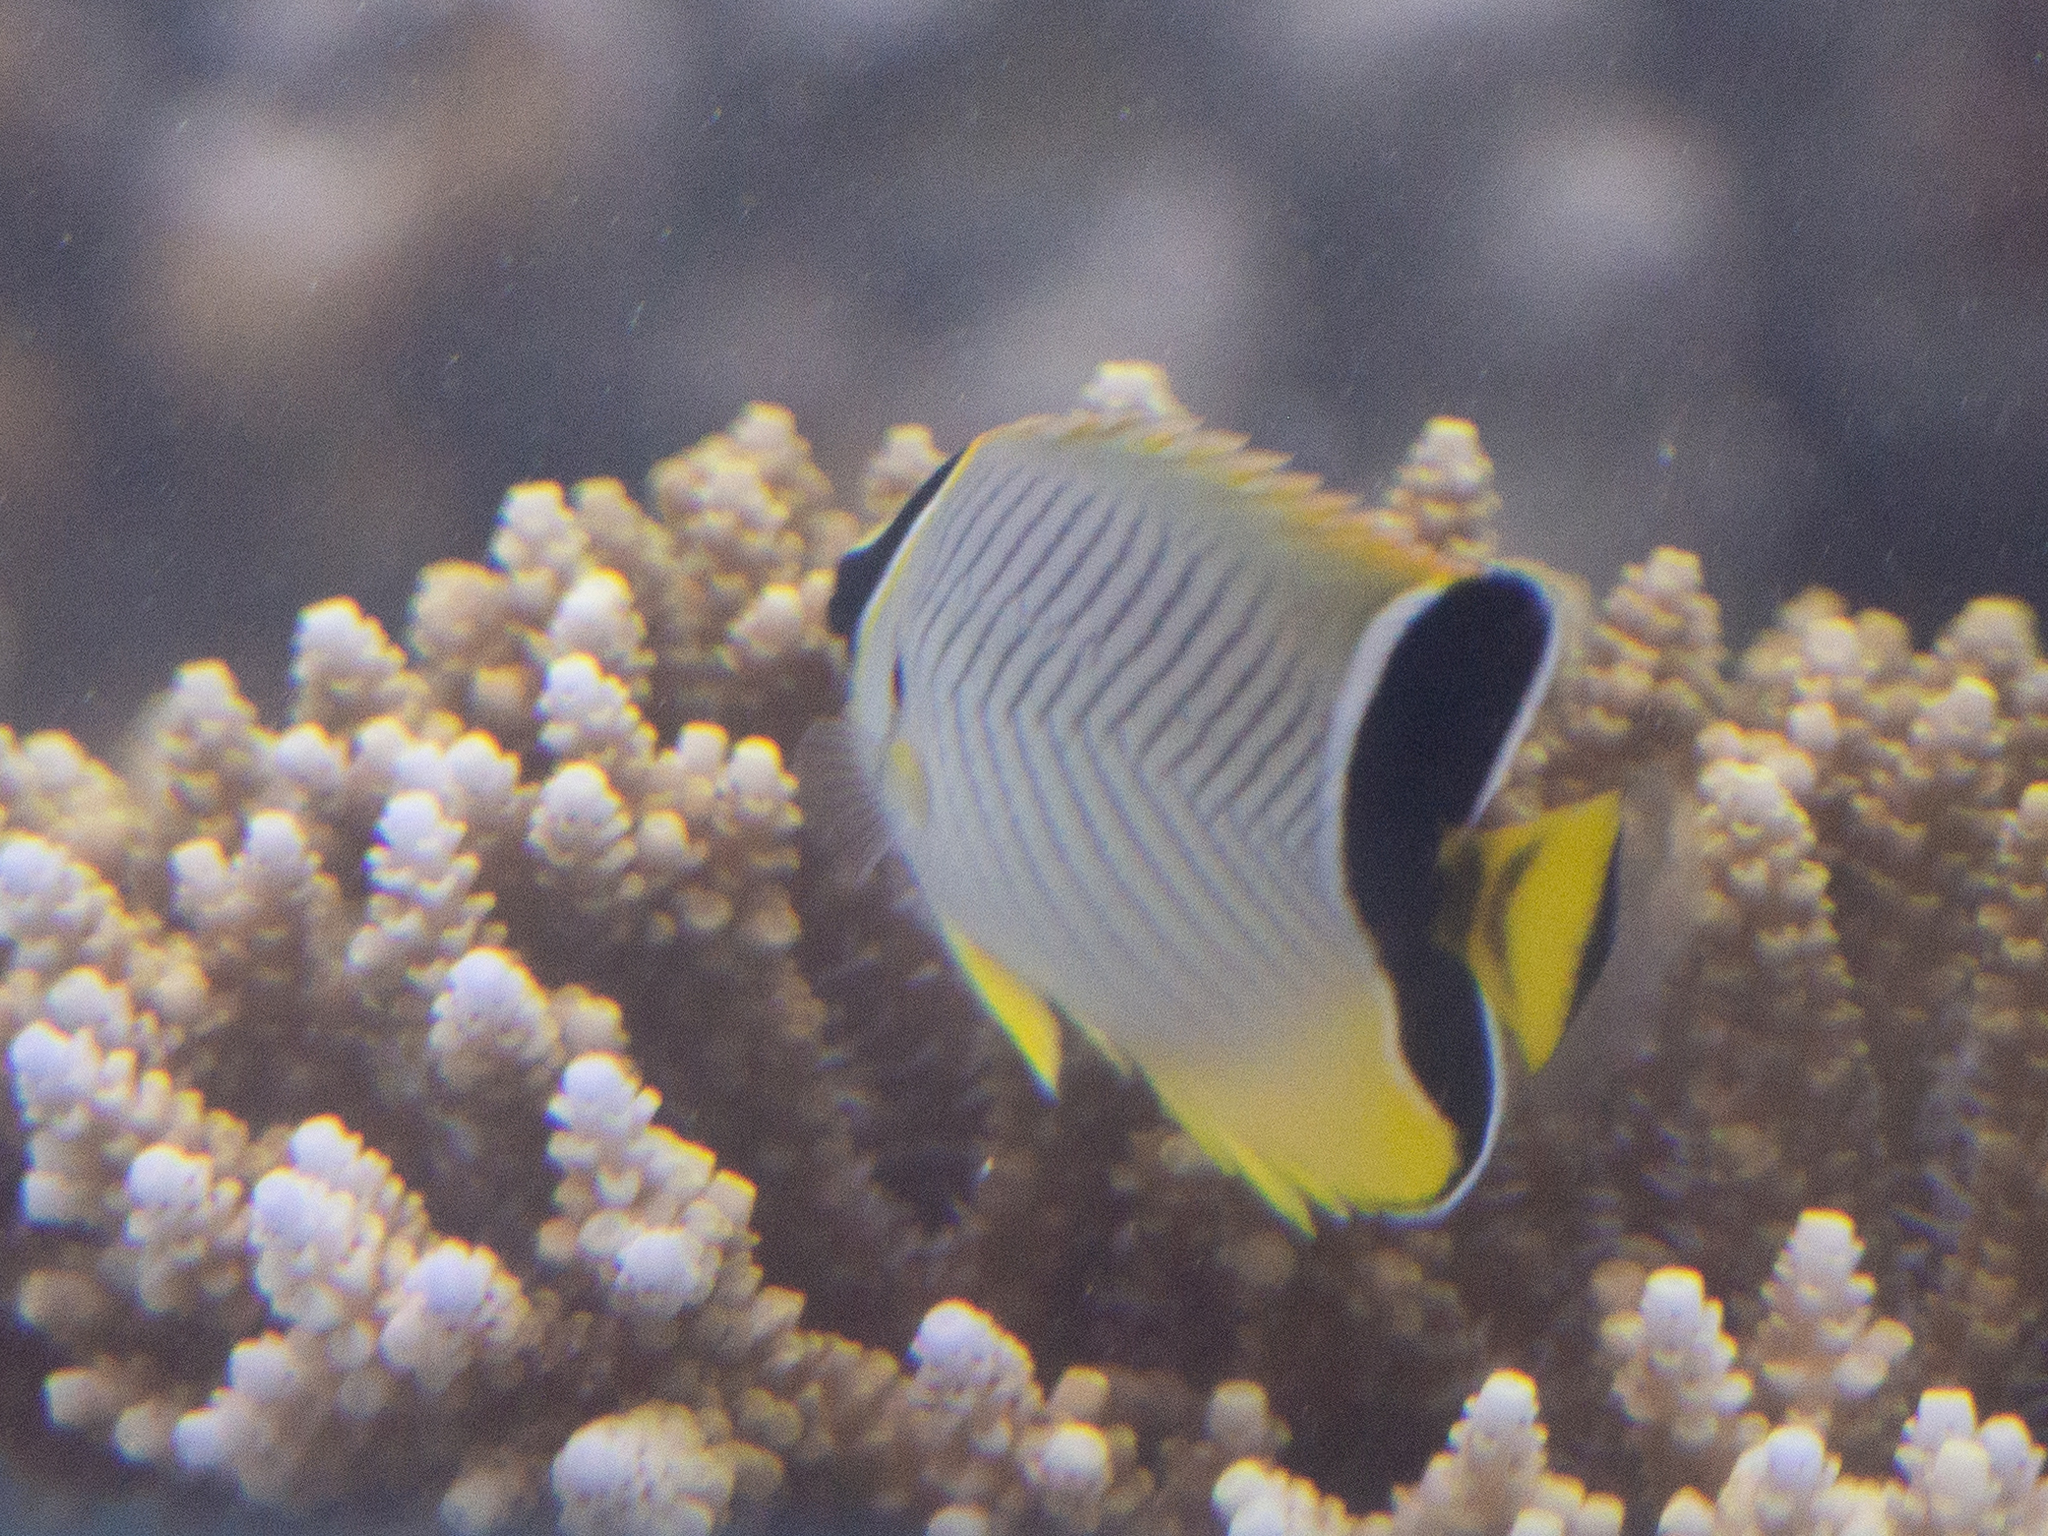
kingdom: Animalia
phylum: Chordata
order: Perciformes
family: Chaetodontidae
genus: Chaetodon
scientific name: Chaetodon trifascialis
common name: Chevroned butterflyfish
